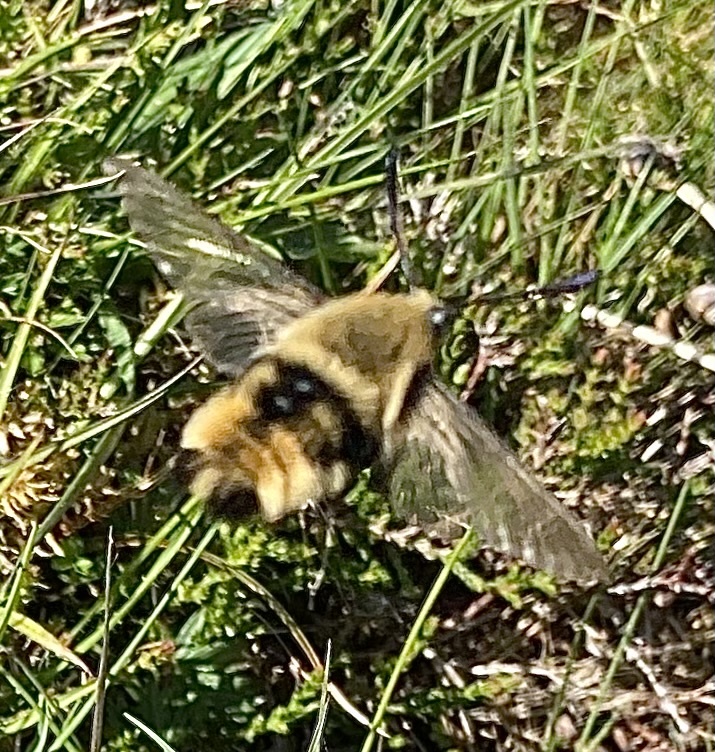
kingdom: Animalia
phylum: Arthropoda
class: Insecta
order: Lepidoptera
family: Sphingidae
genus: Hemaris
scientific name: Hemaris tityus
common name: Narrow-bordered bee hawk-moth
